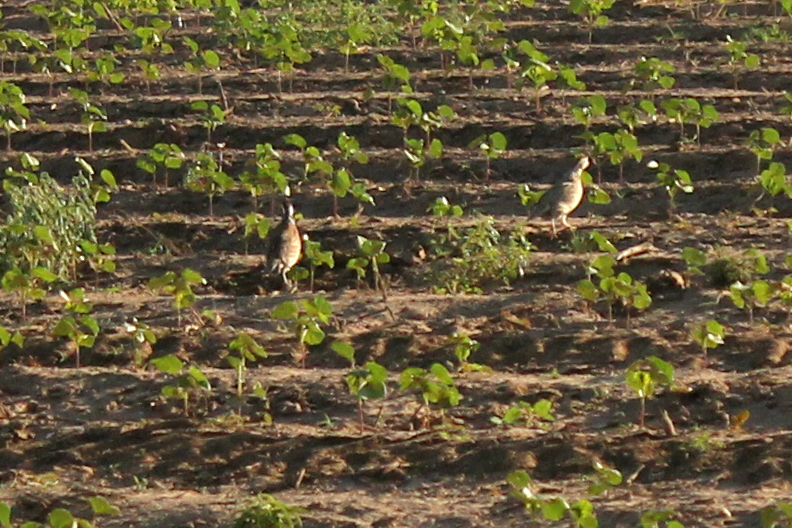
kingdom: Animalia
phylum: Chordata
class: Aves
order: Galliformes
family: Odontophoridae
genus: Colinus
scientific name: Colinus virginianus
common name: Northern bobwhite
